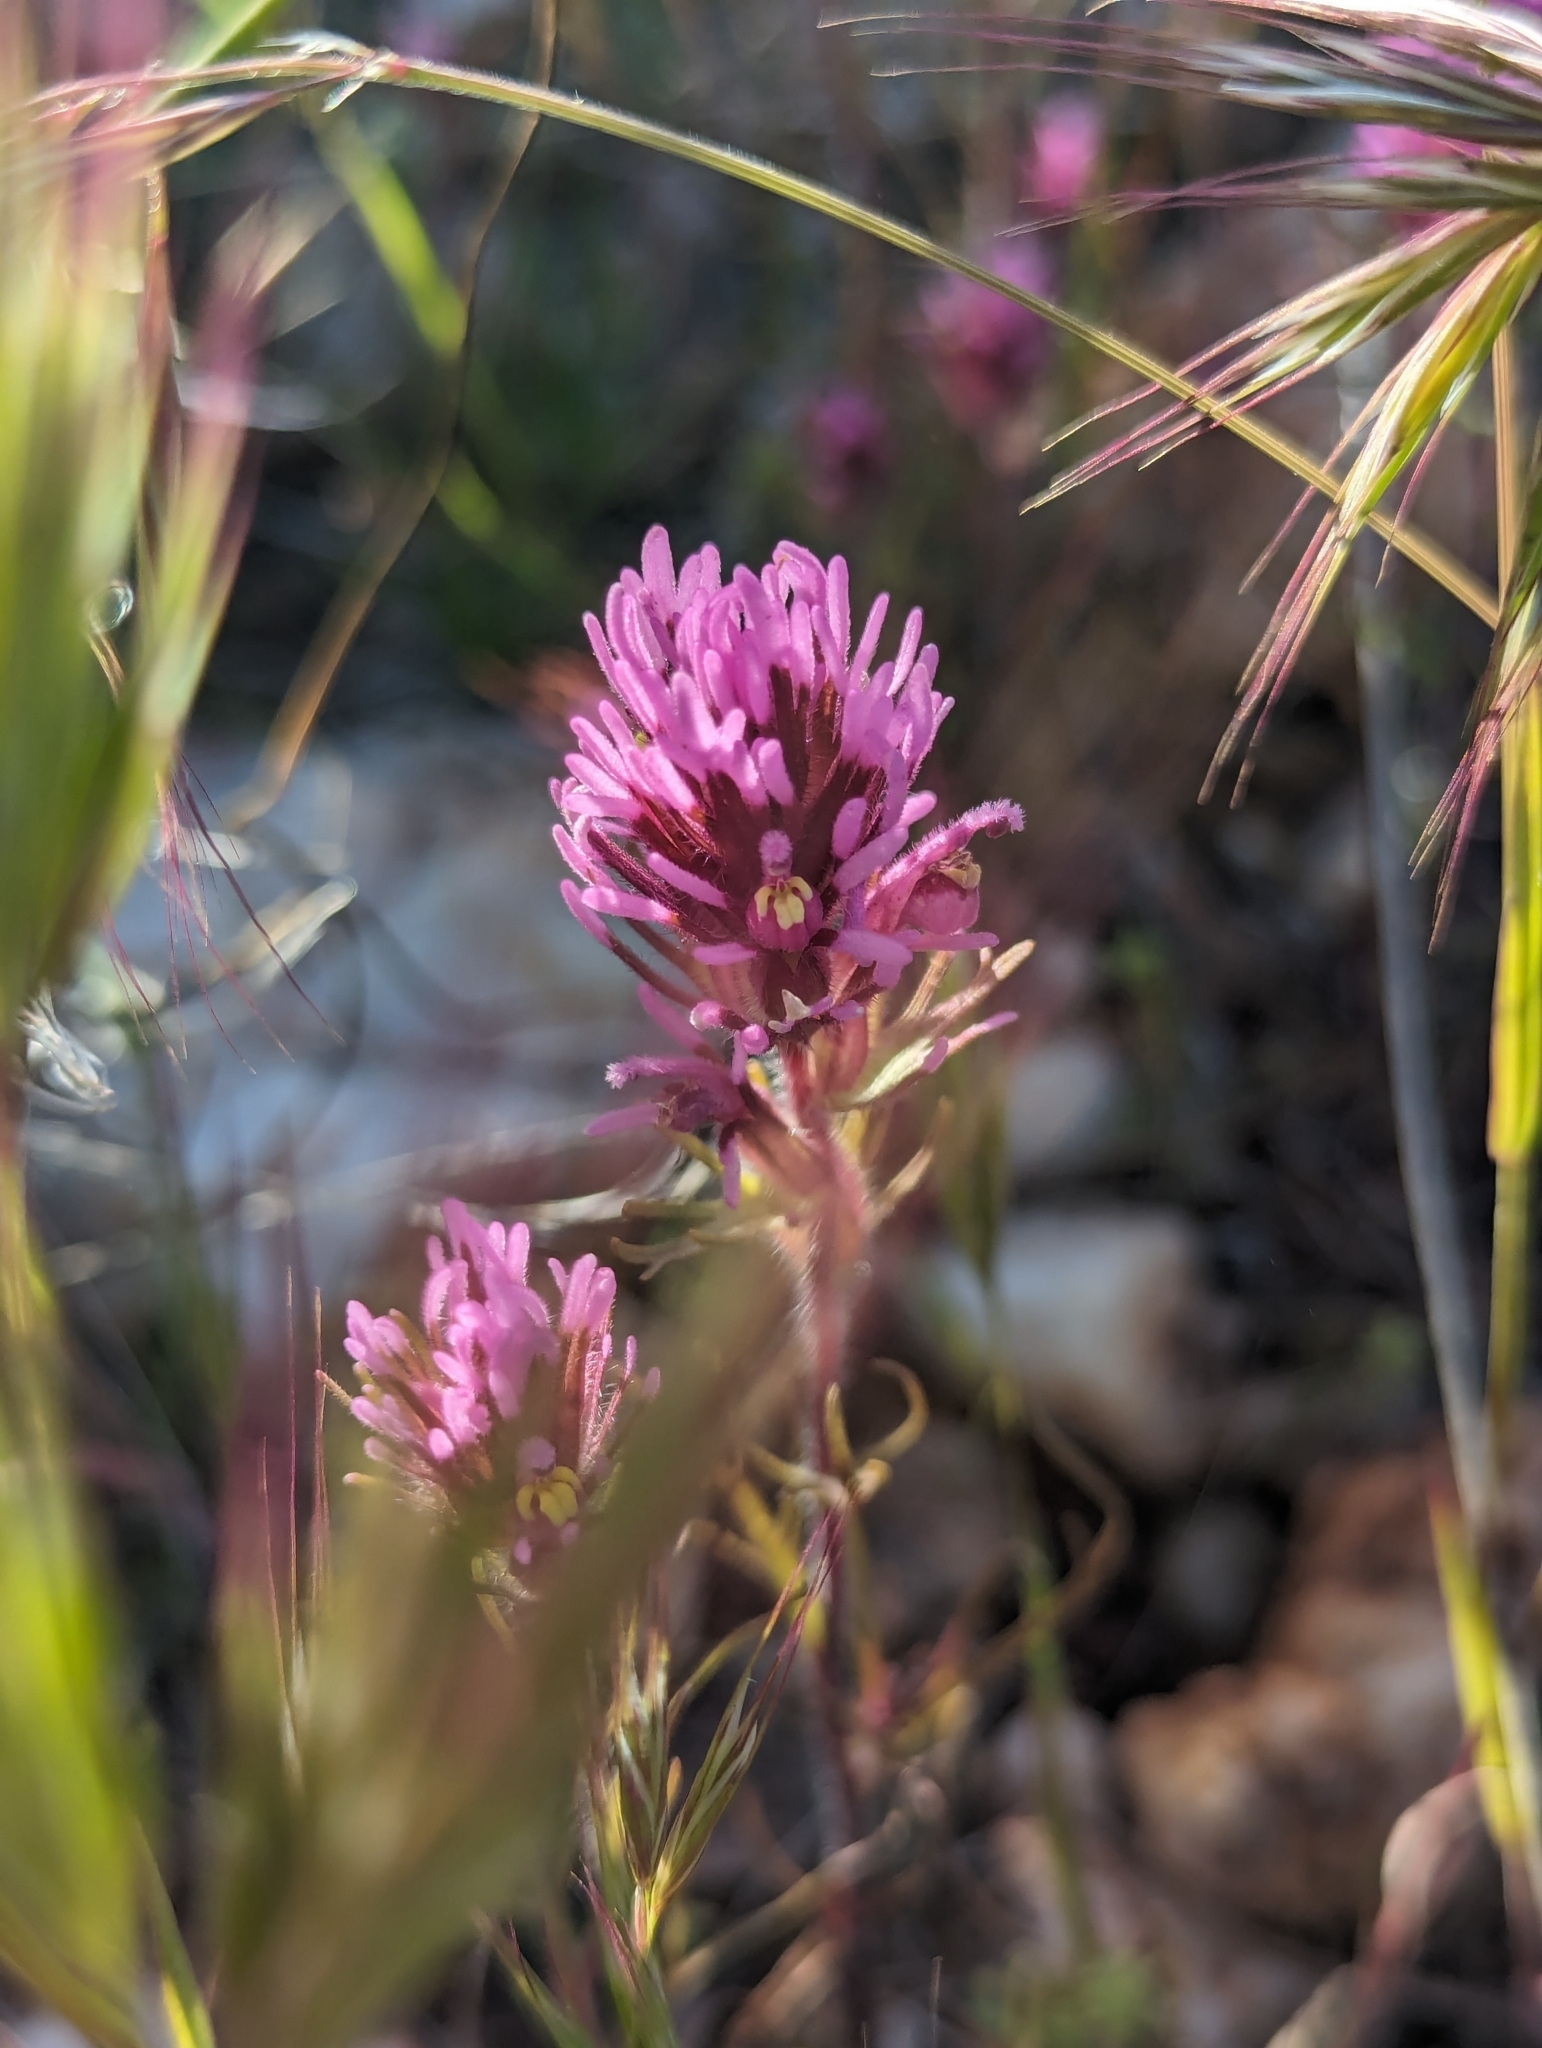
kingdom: Plantae
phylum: Tracheophyta
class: Magnoliopsida
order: Lamiales
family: Orobanchaceae
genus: Castilleja
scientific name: Castilleja exserta
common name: Purple owl-clover
